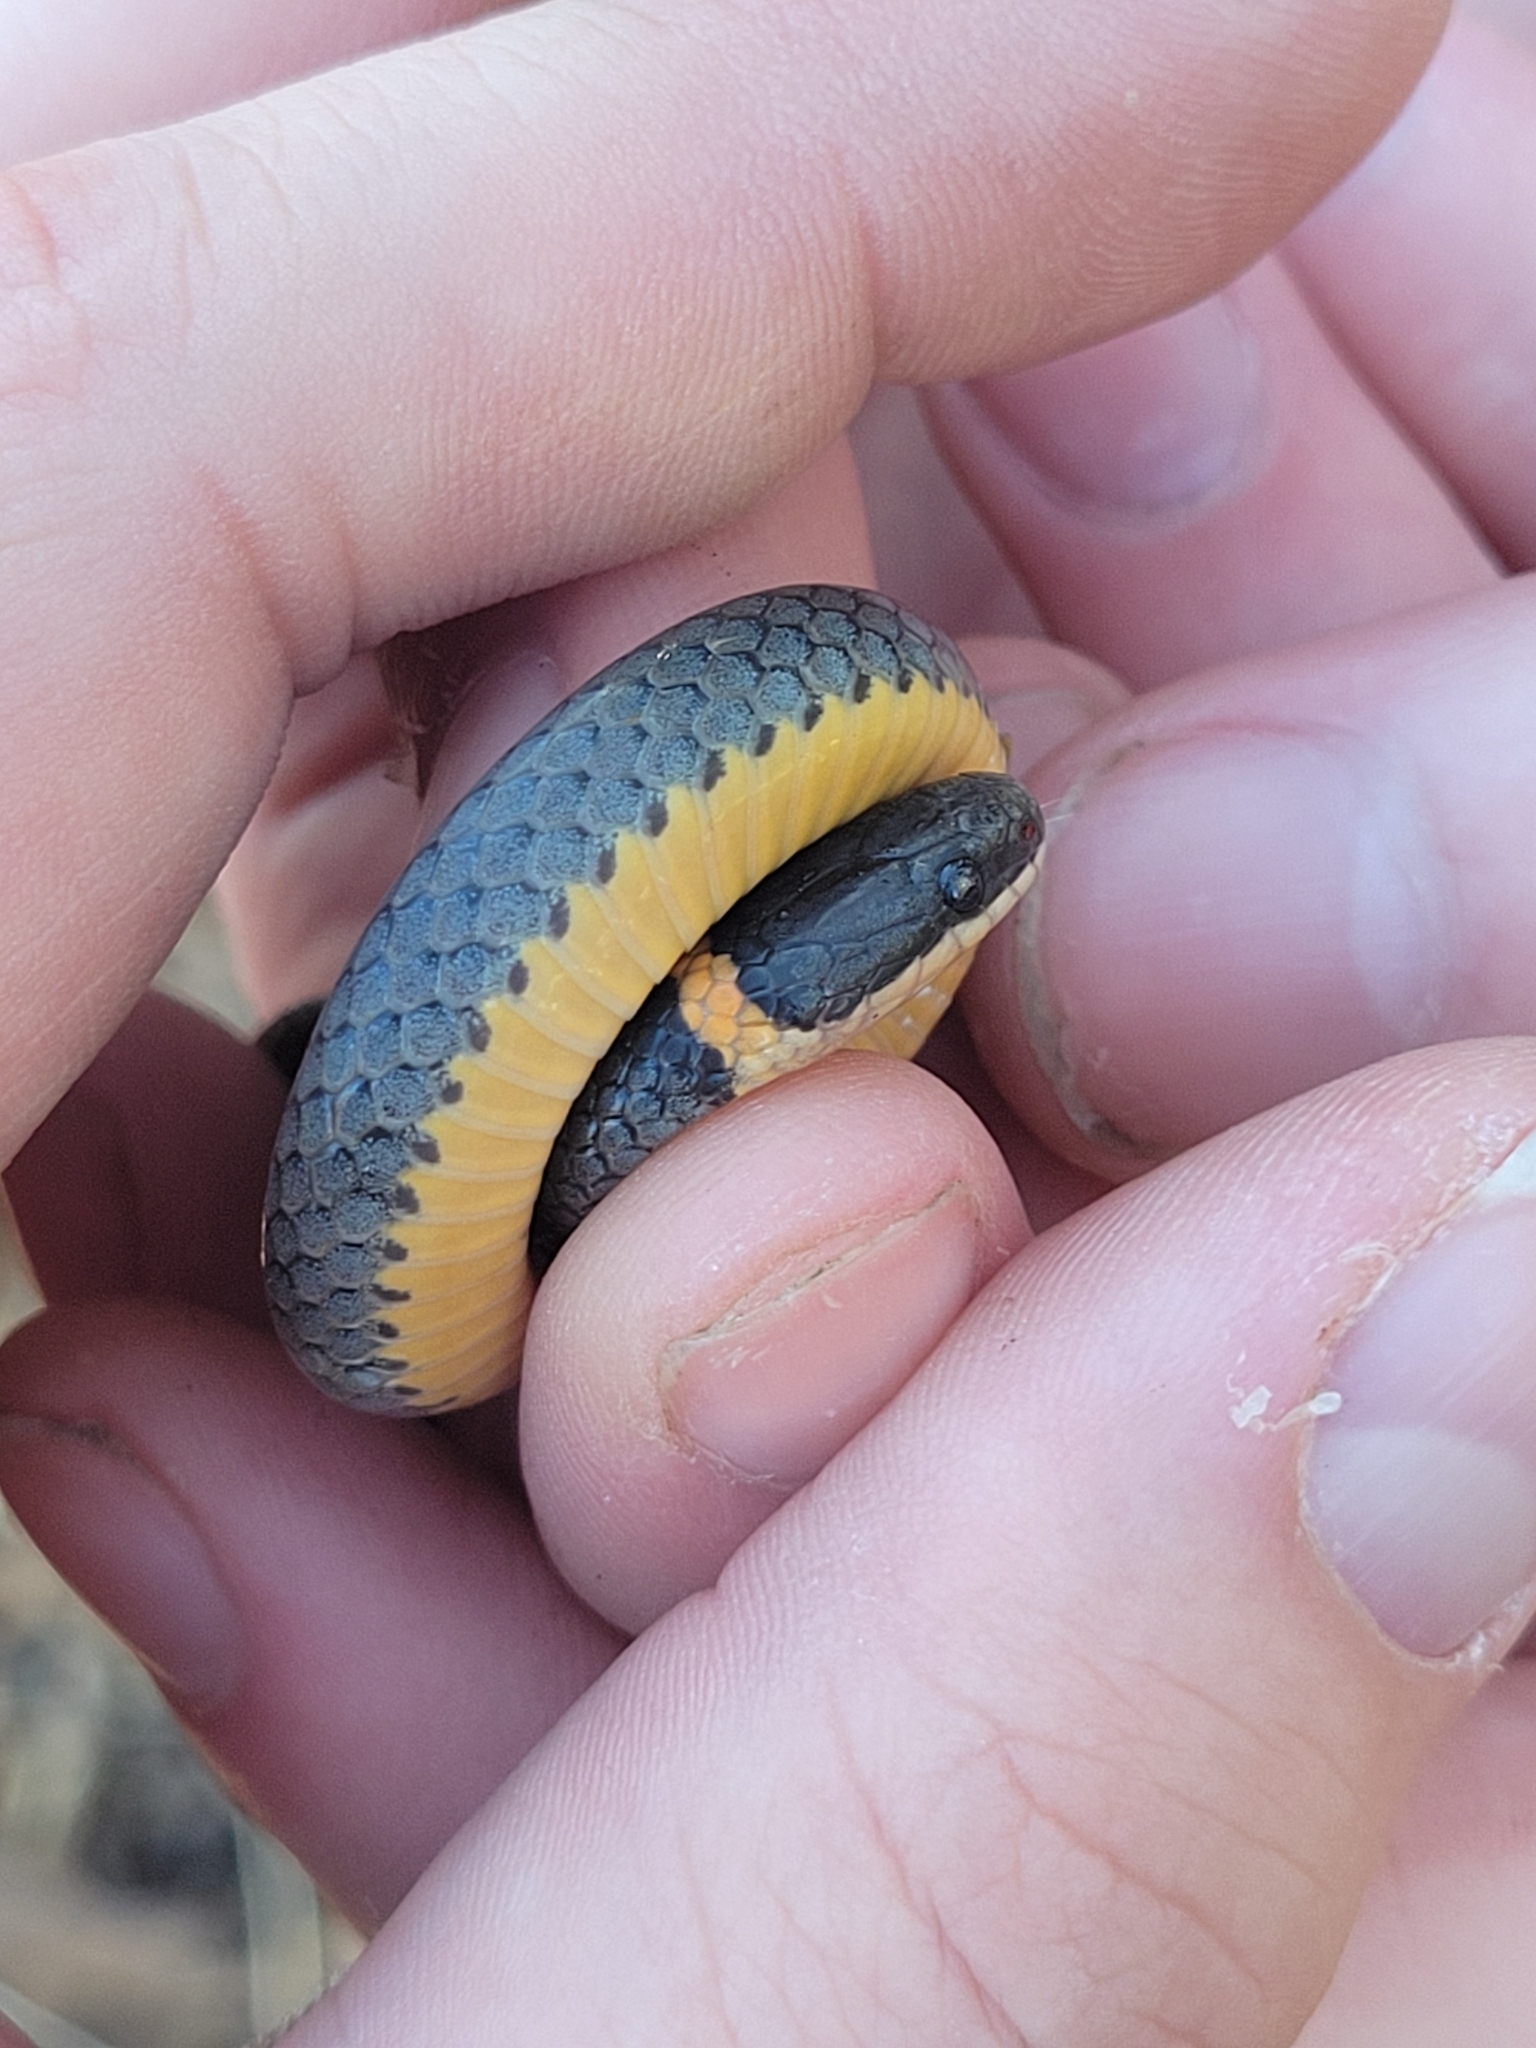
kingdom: Animalia
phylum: Chordata
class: Squamata
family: Colubridae
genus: Diadophis
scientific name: Diadophis punctatus
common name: Ringneck snake
